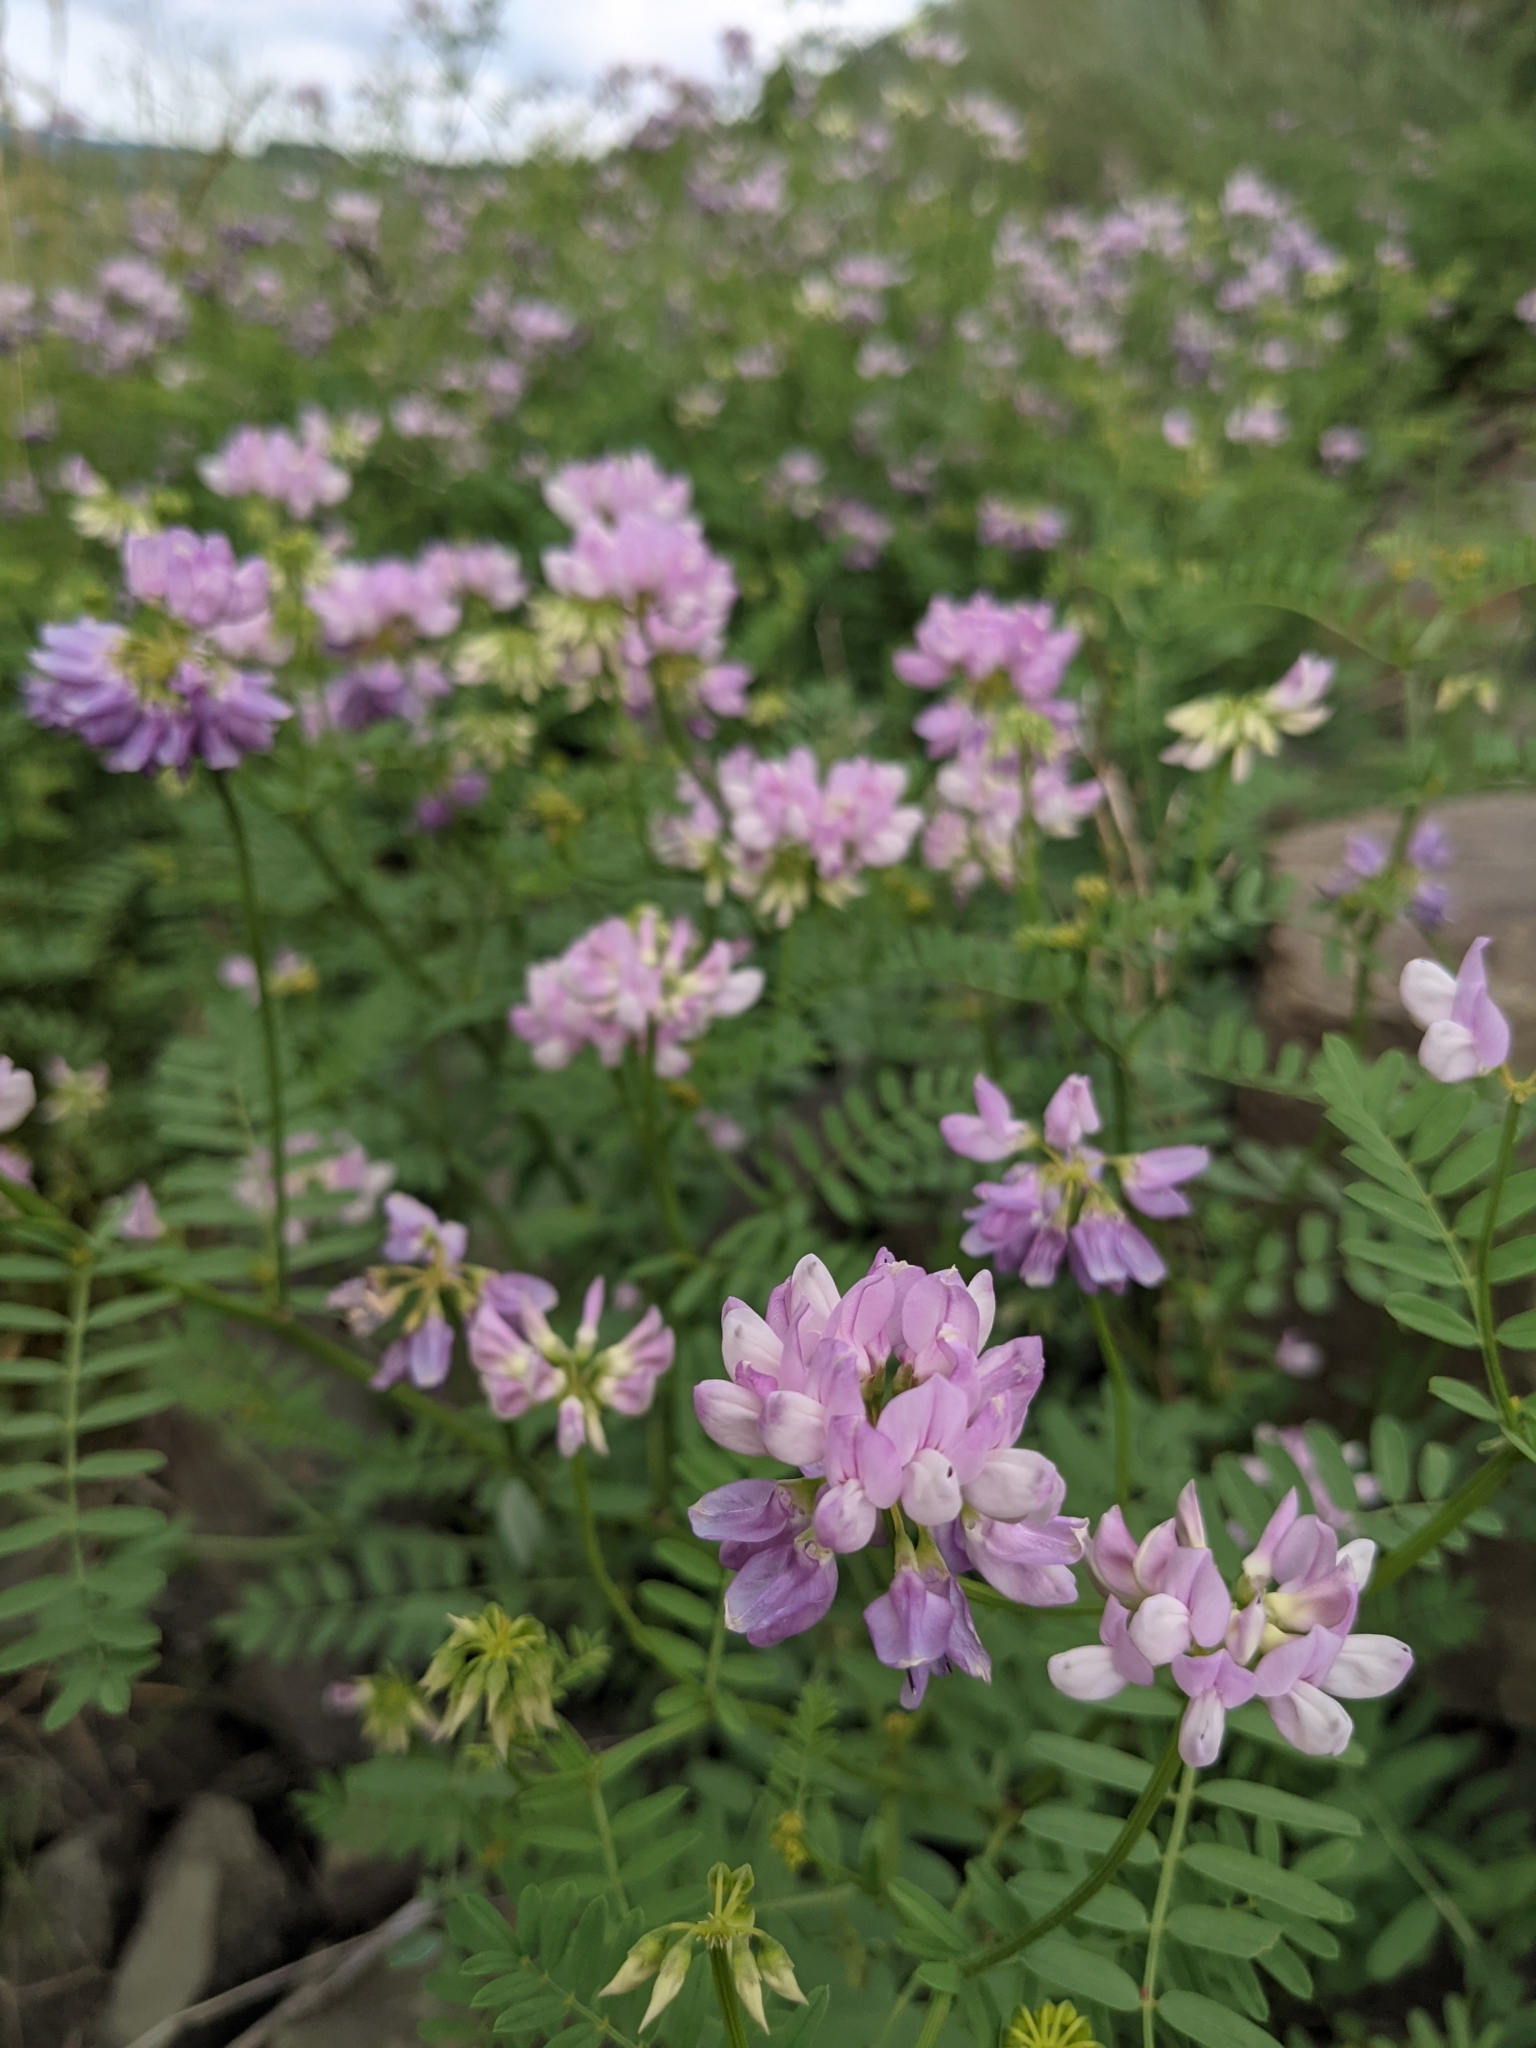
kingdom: Plantae
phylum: Tracheophyta
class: Magnoliopsida
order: Fabales
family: Fabaceae
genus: Coronilla
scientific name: Coronilla varia
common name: Crownvetch
